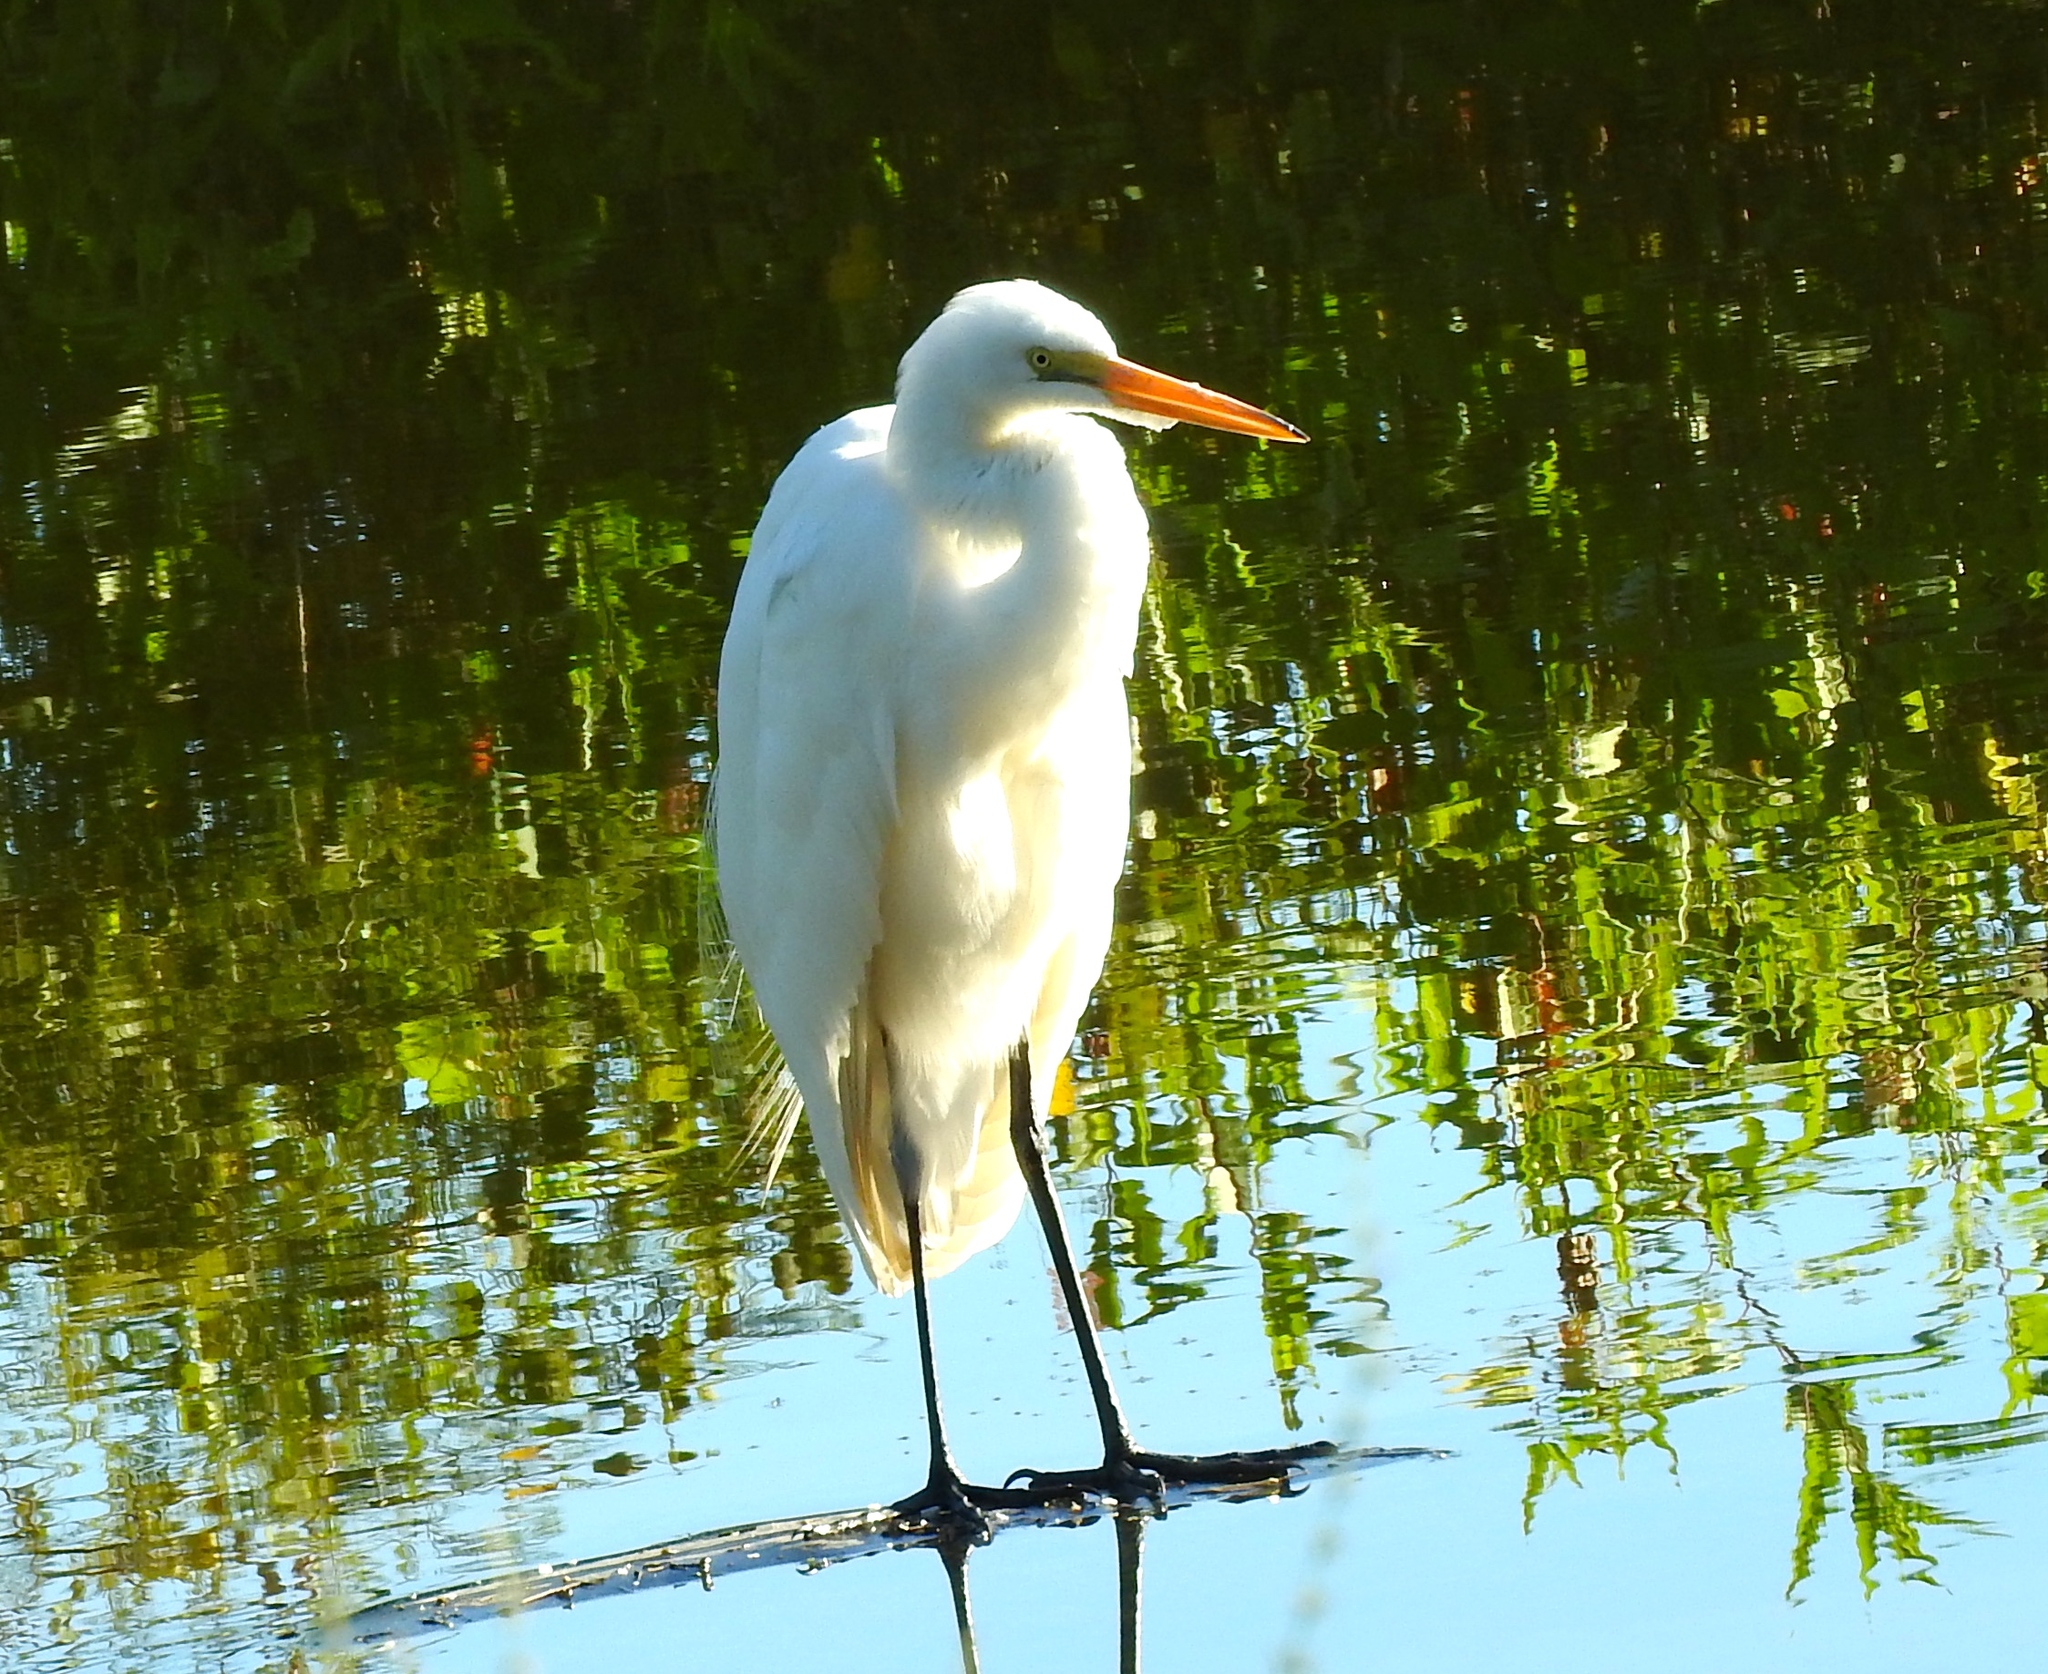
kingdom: Animalia
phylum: Chordata
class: Aves
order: Pelecaniformes
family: Ardeidae
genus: Ardea
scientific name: Ardea alba
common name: Great egret
